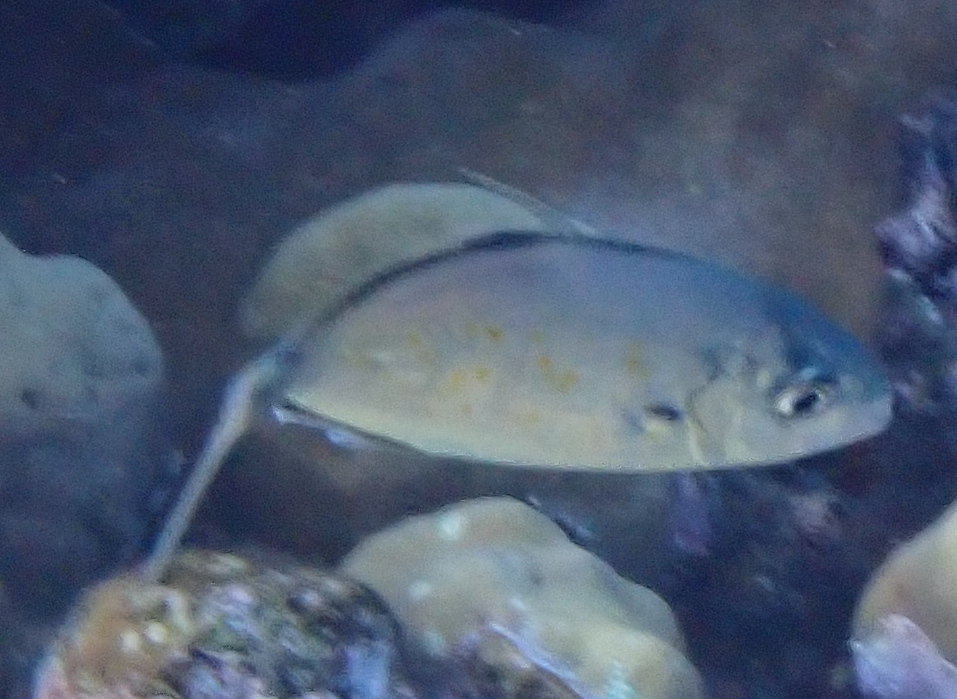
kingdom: Animalia
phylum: Chordata
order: Perciformes
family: Carangidae
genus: Flavocaranx
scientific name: Flavocaranx bajad
